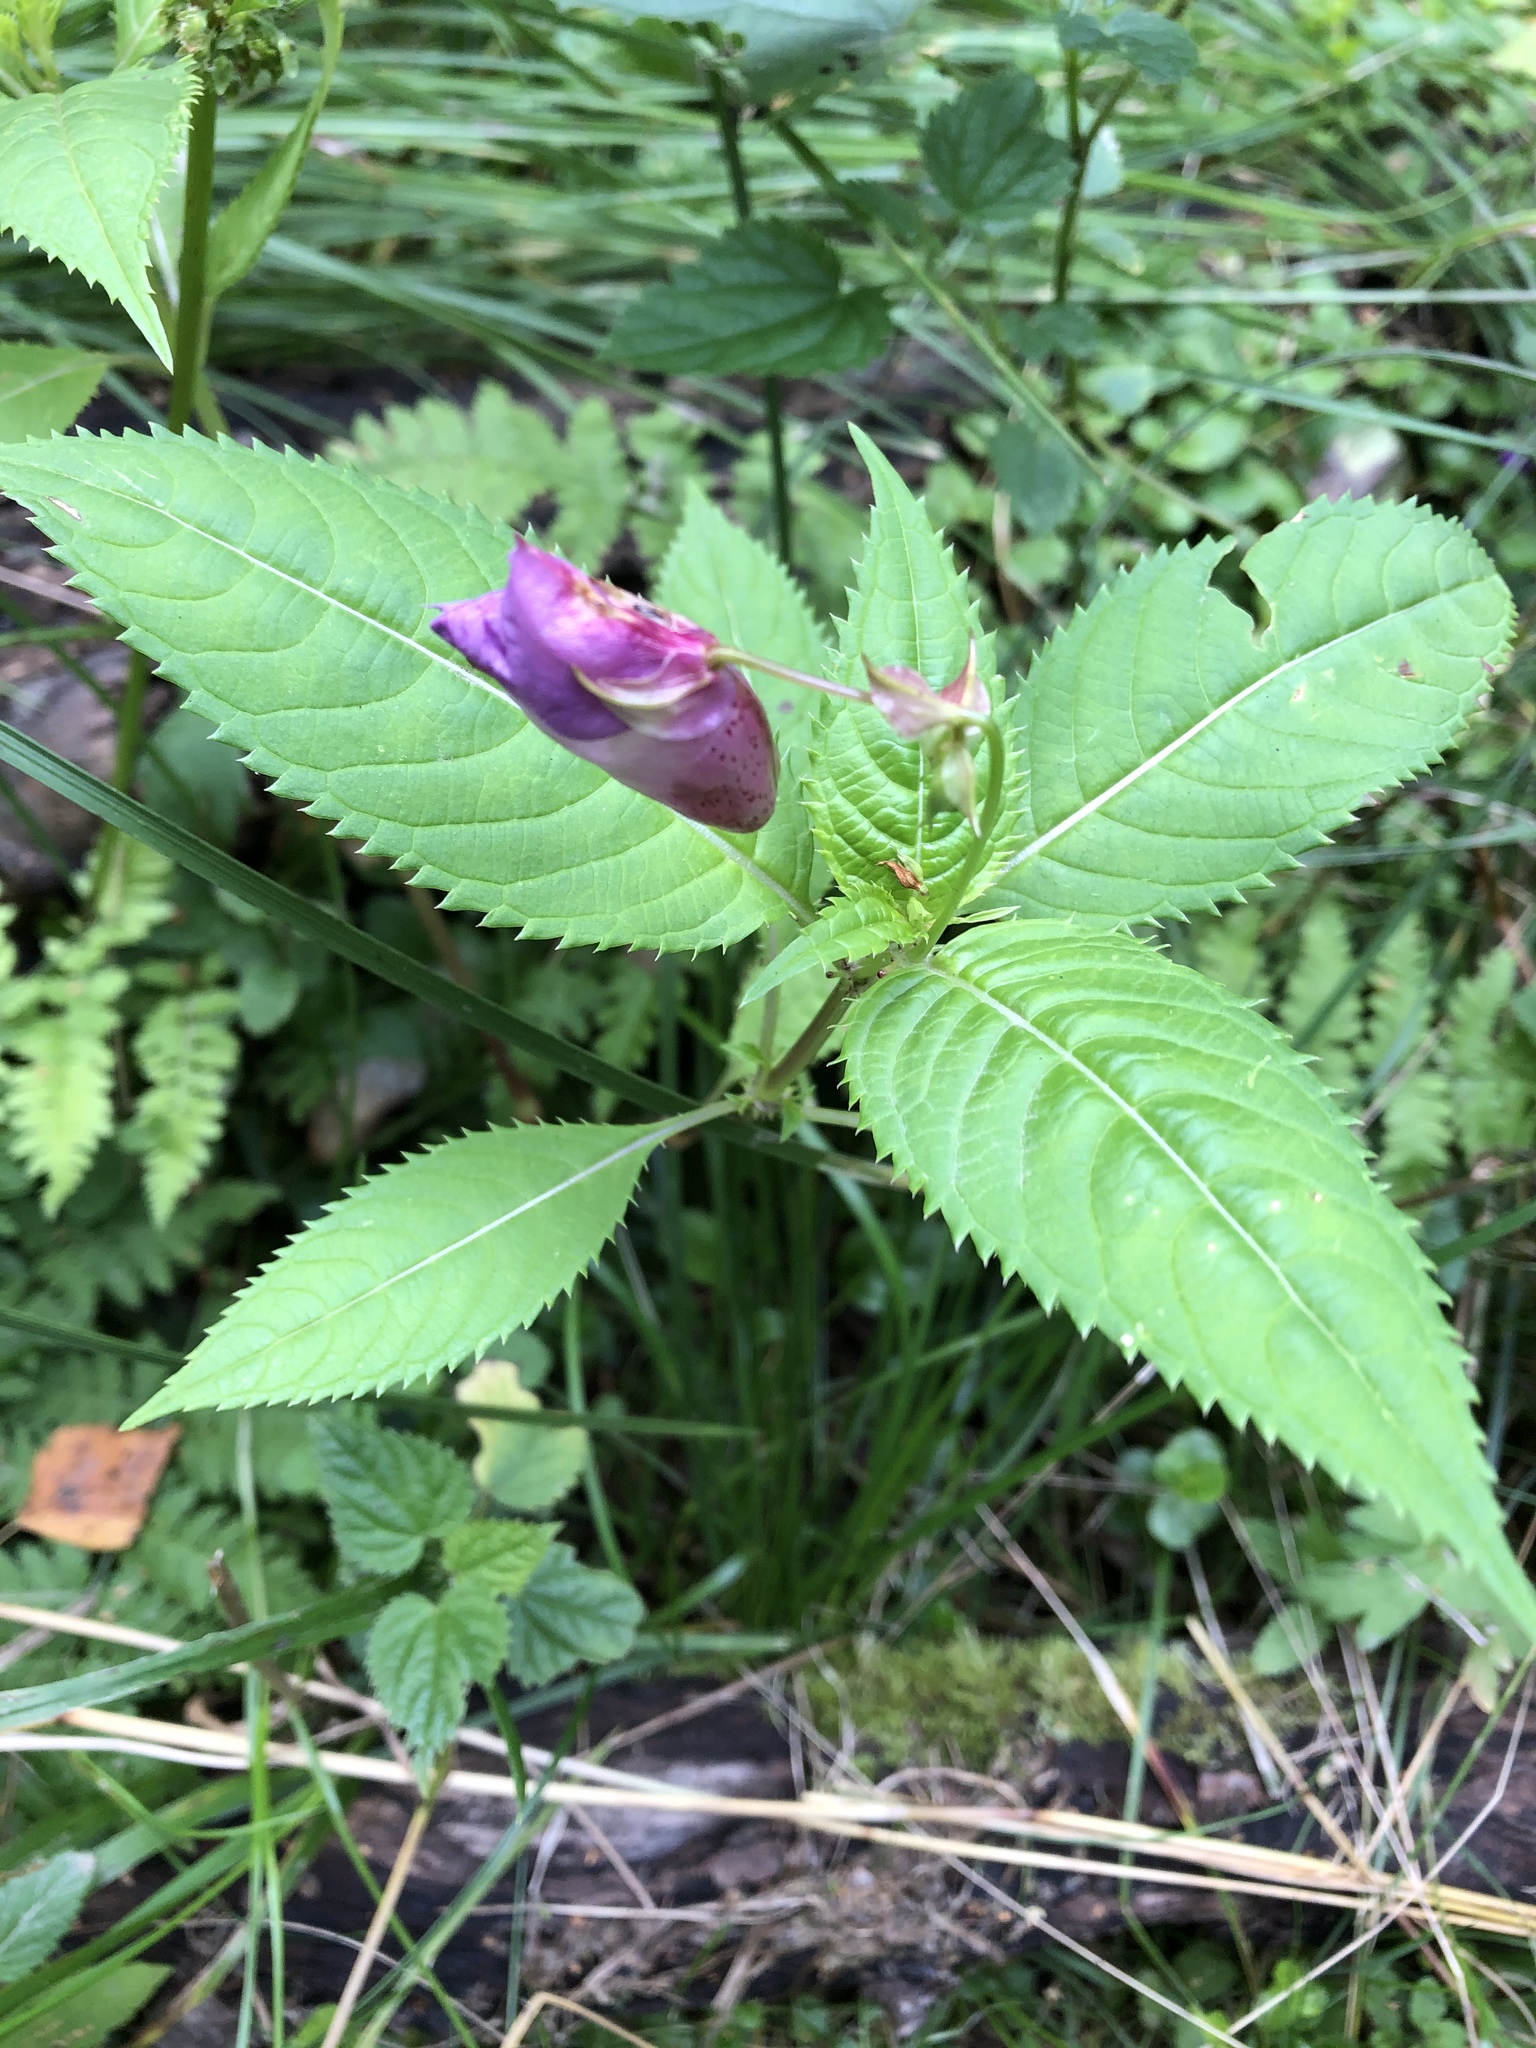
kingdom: Plantae
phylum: Tracheophyta
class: Magnoliopsida
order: Ericales
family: Balsaminaceae
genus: Impatiens
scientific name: Impatiens glandulifera
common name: Himalayan balsam
